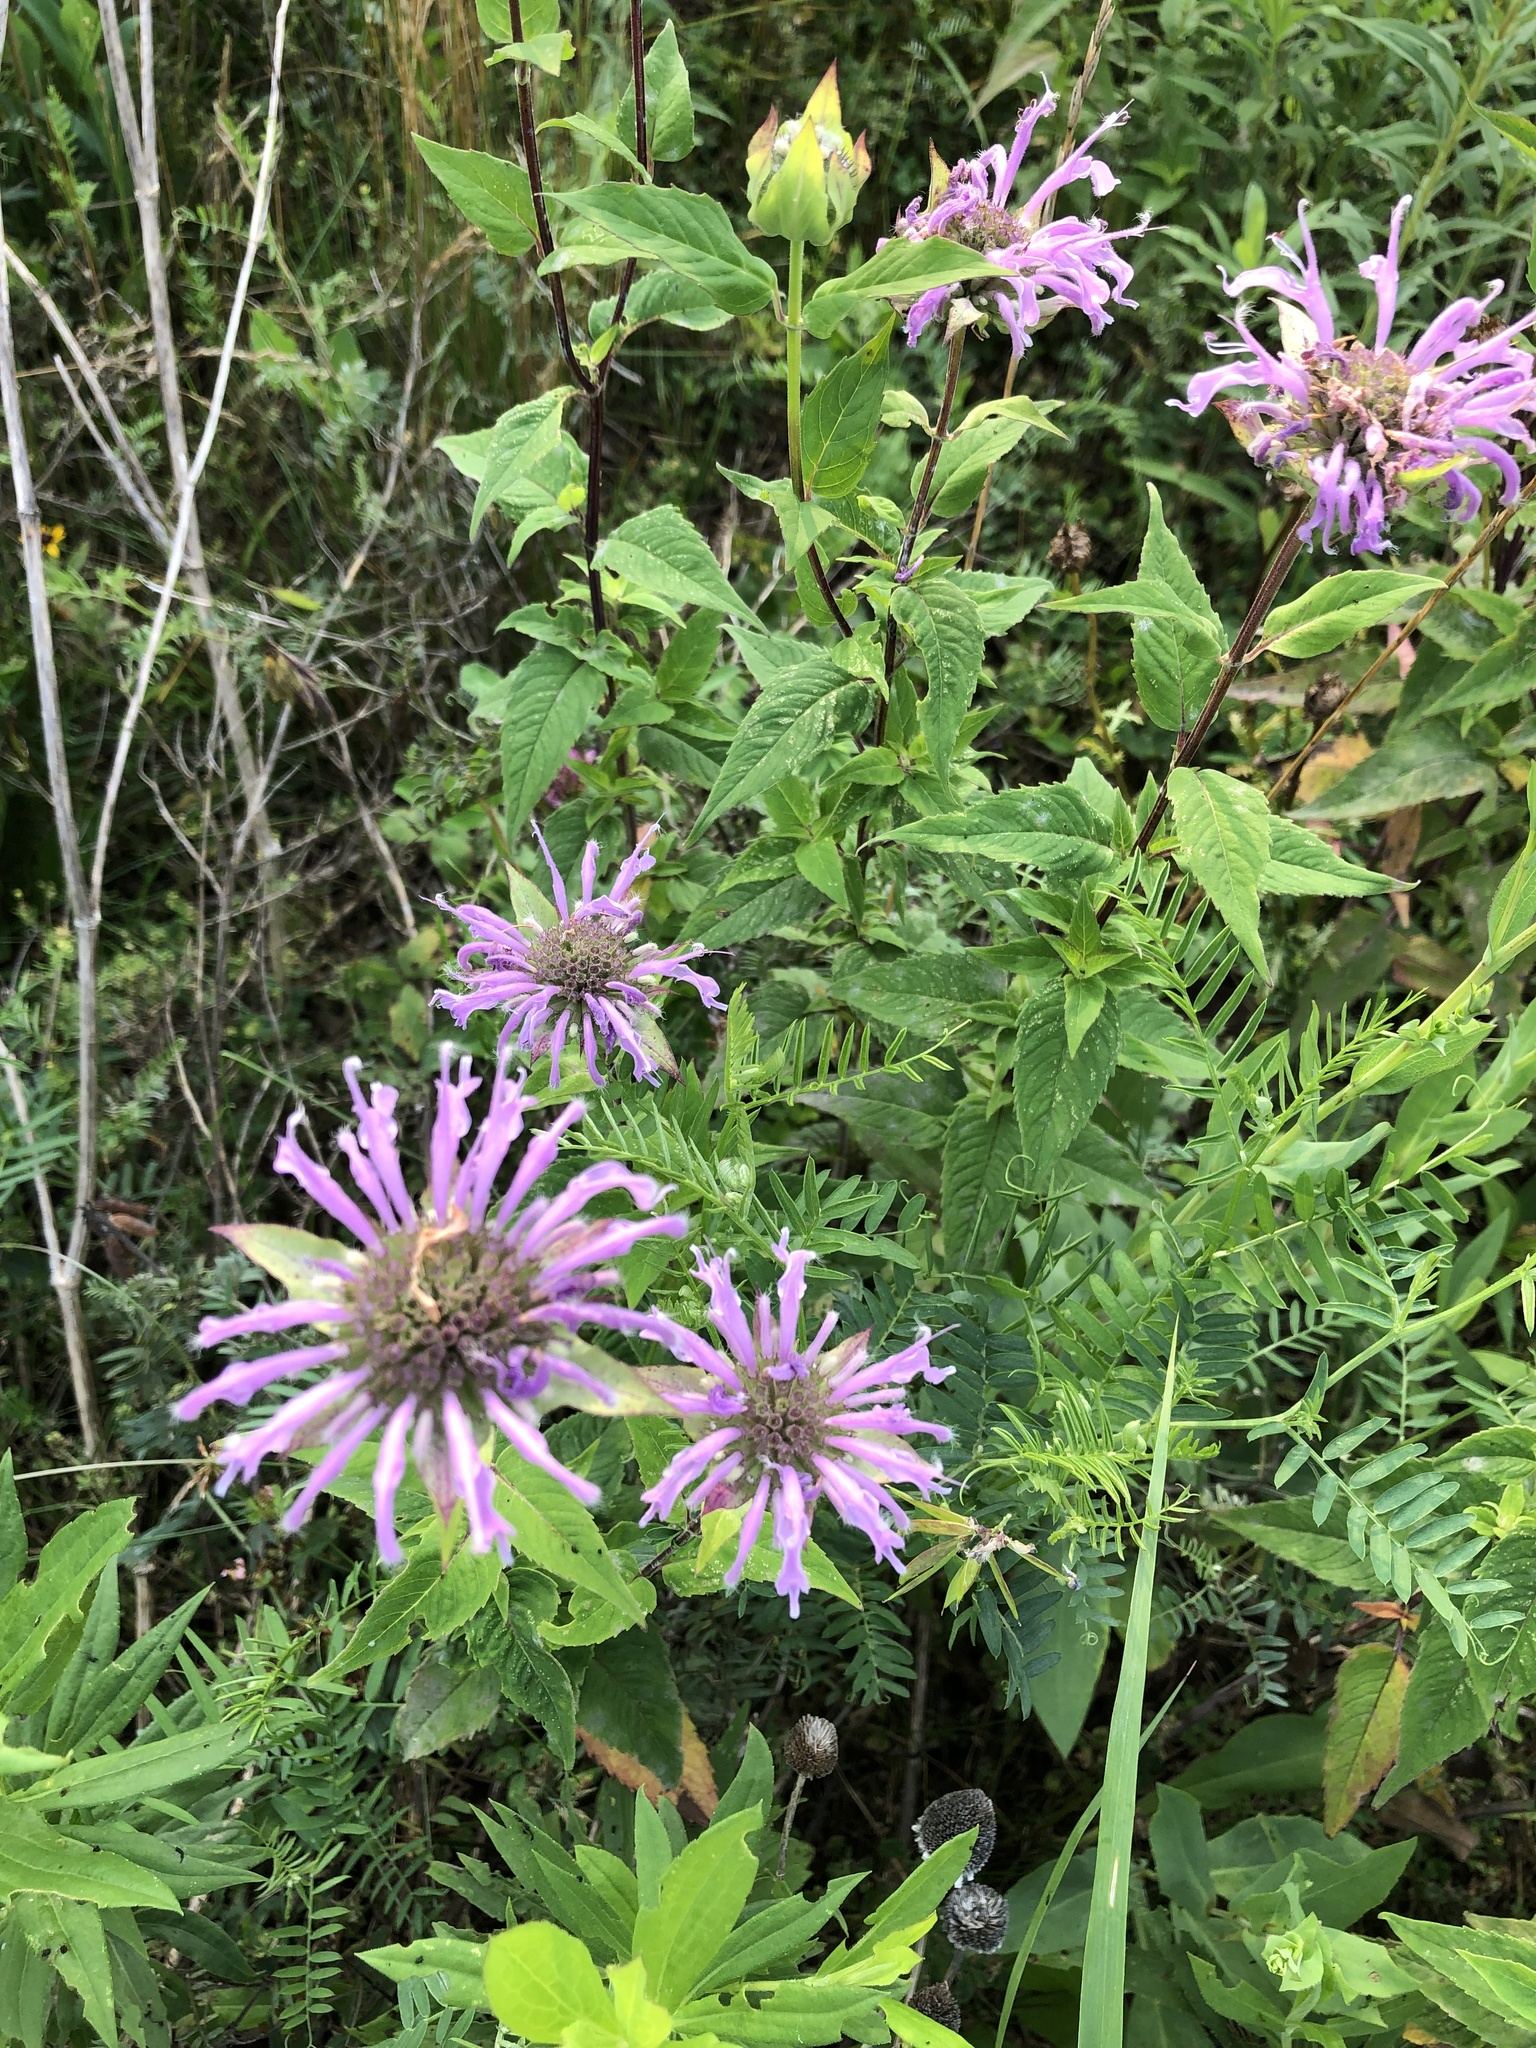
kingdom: Plantae
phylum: Tracheophyta
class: Magnoliopsida
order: Lamiales
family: Lamiaceae
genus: Monarda
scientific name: Monarda fistulosa
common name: Purple beebalm
